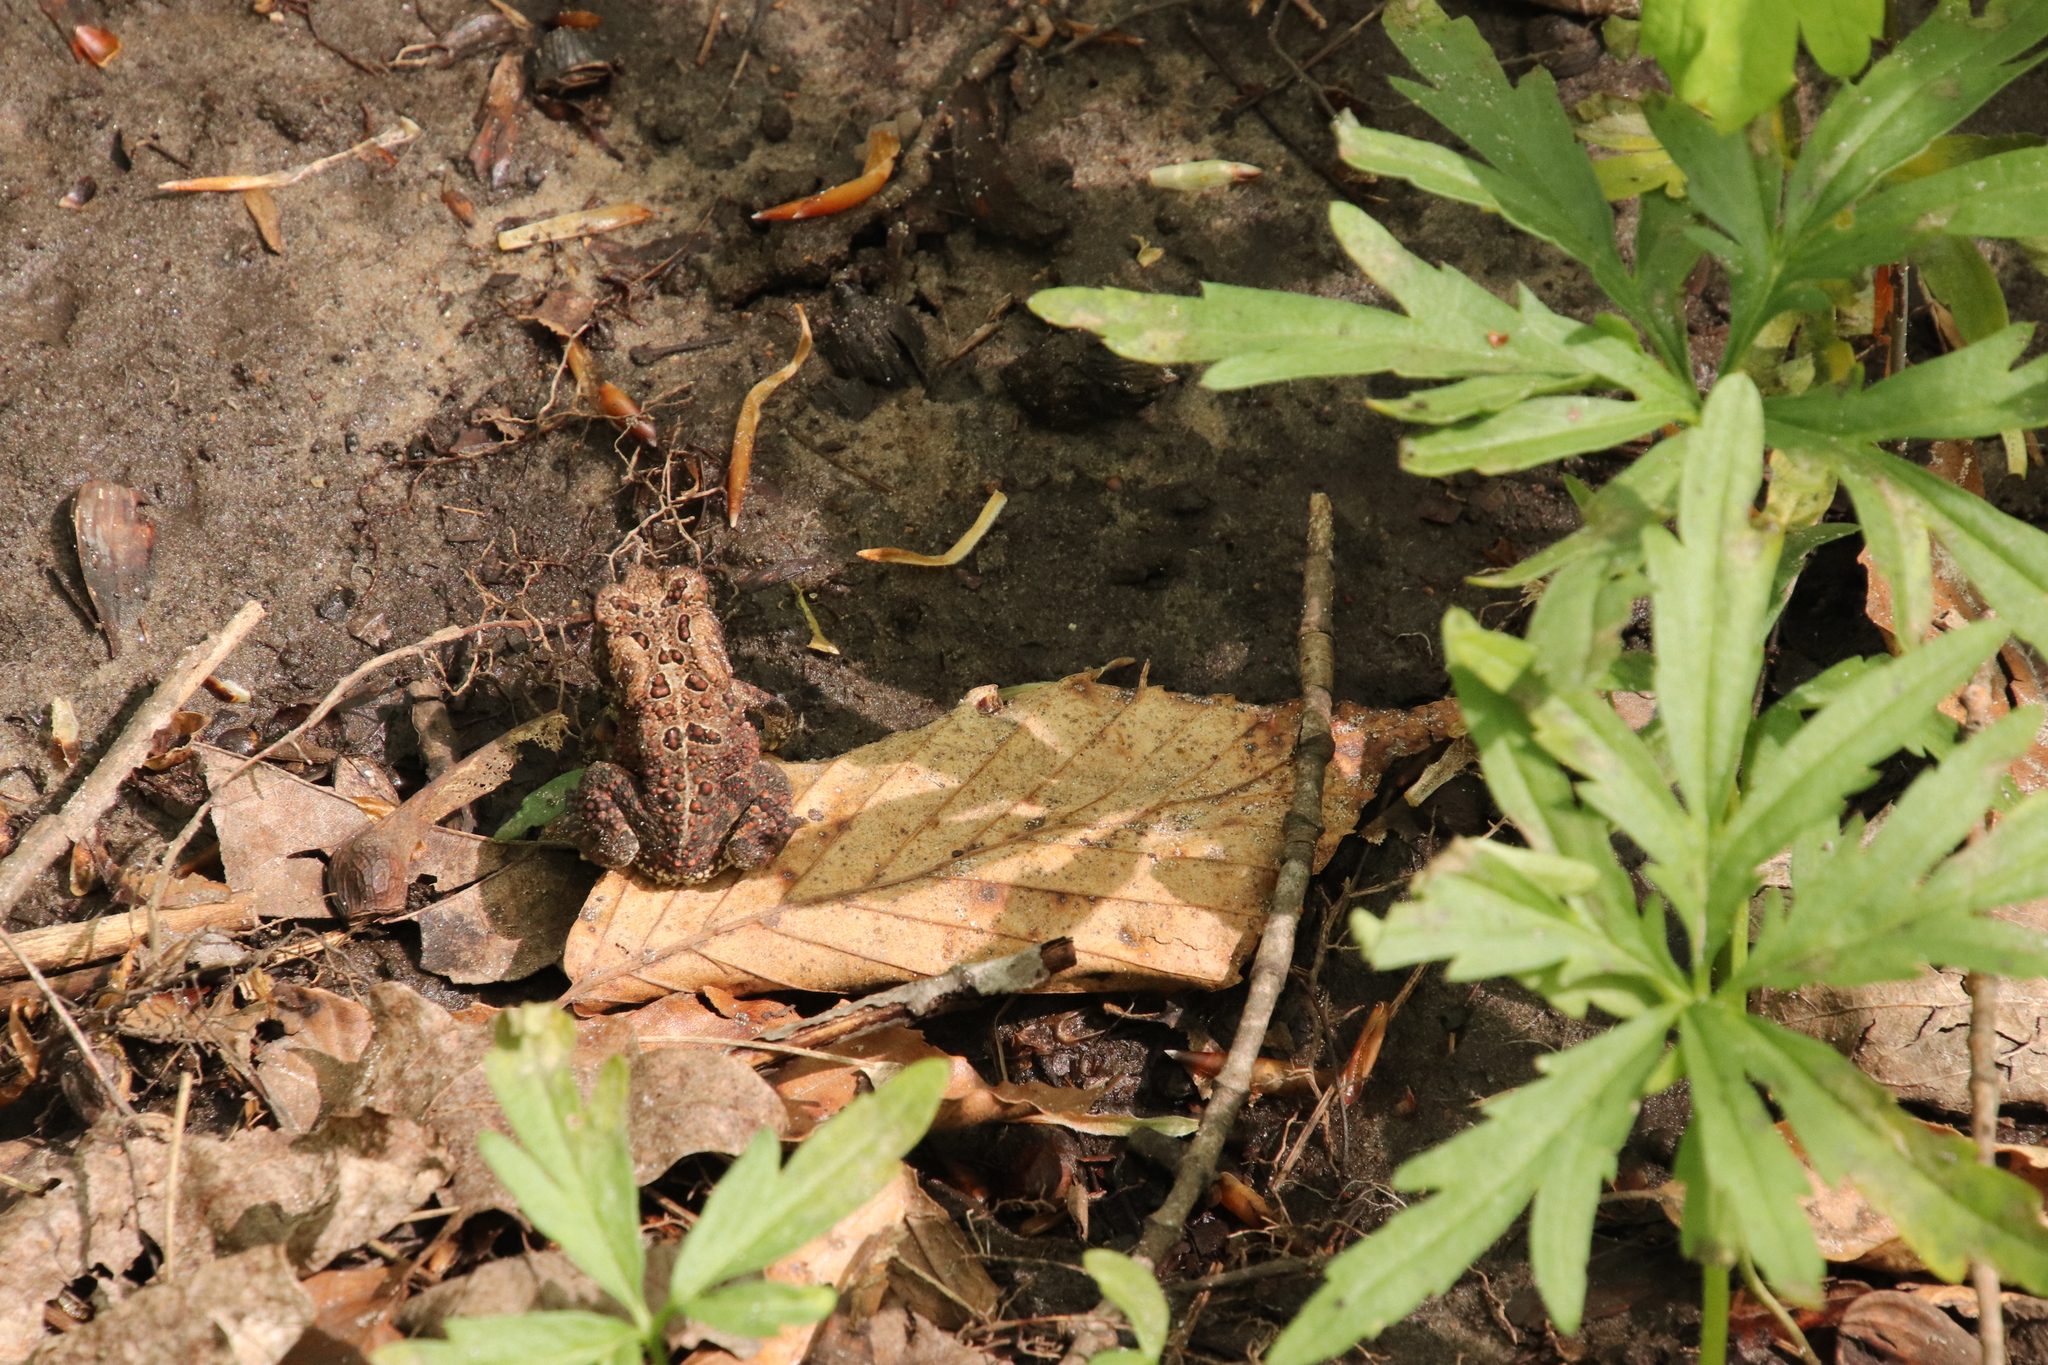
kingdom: Animalia
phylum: Chordata
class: Amphibia
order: Anura
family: Bufonidae
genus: Anaxyrus
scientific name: Anaxyrus americanus
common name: American toad
